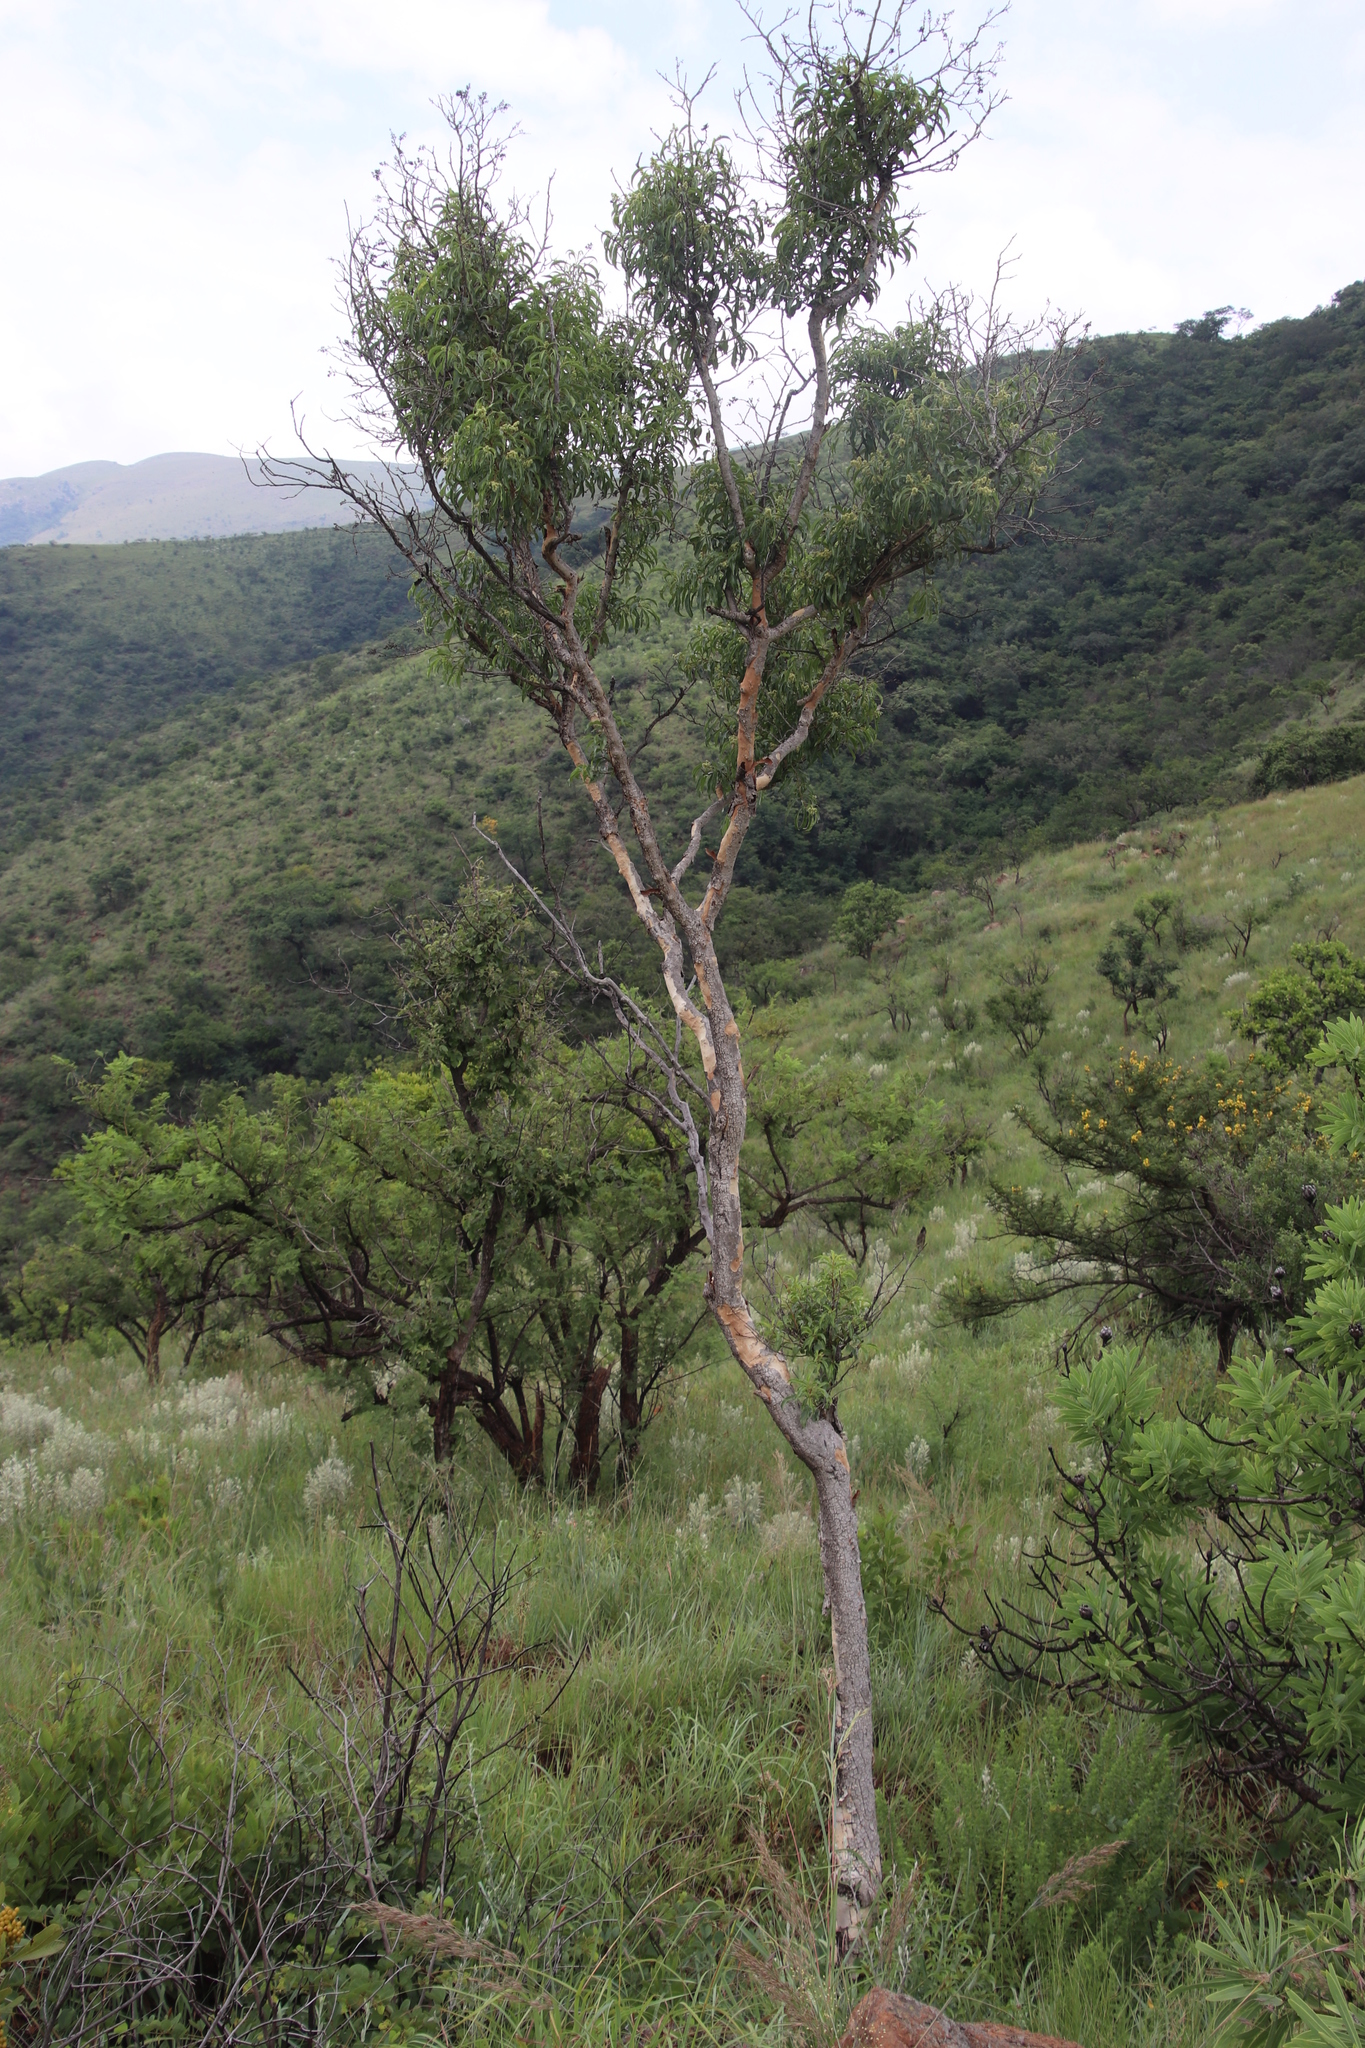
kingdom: Plantae
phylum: Tracheophyta
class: Magnoliopsida
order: Myrtales
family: Myrtaceae
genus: Heteropyxis
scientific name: Heteropyxis natalensis
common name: Lavender tree
